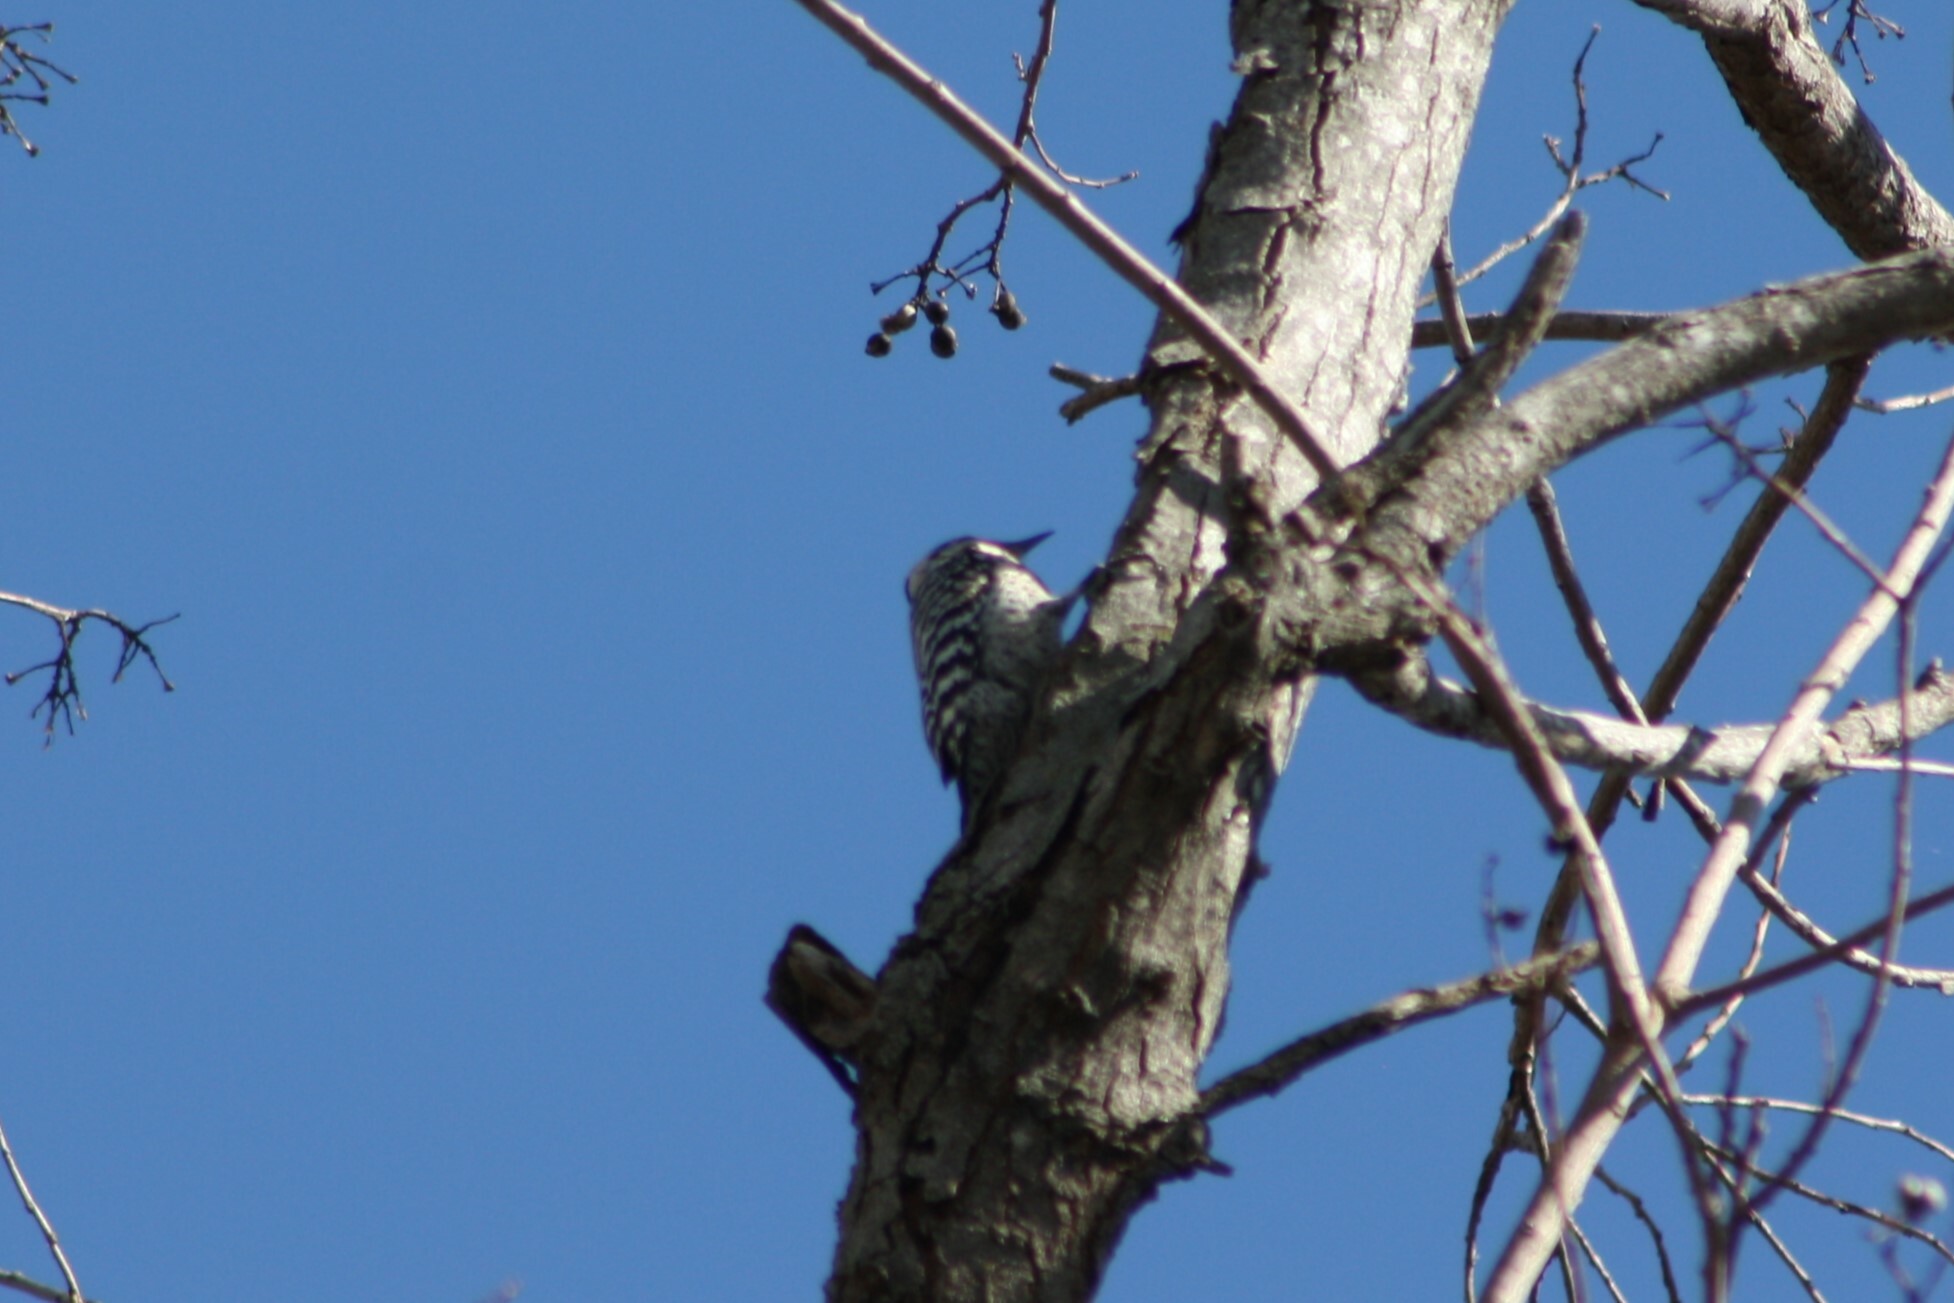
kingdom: Animalia
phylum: Chordata
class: Aves
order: Piciformes
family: Picidae
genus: Dryobates
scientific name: Dryobates scalaris
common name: Ladder-backed woodpecker
